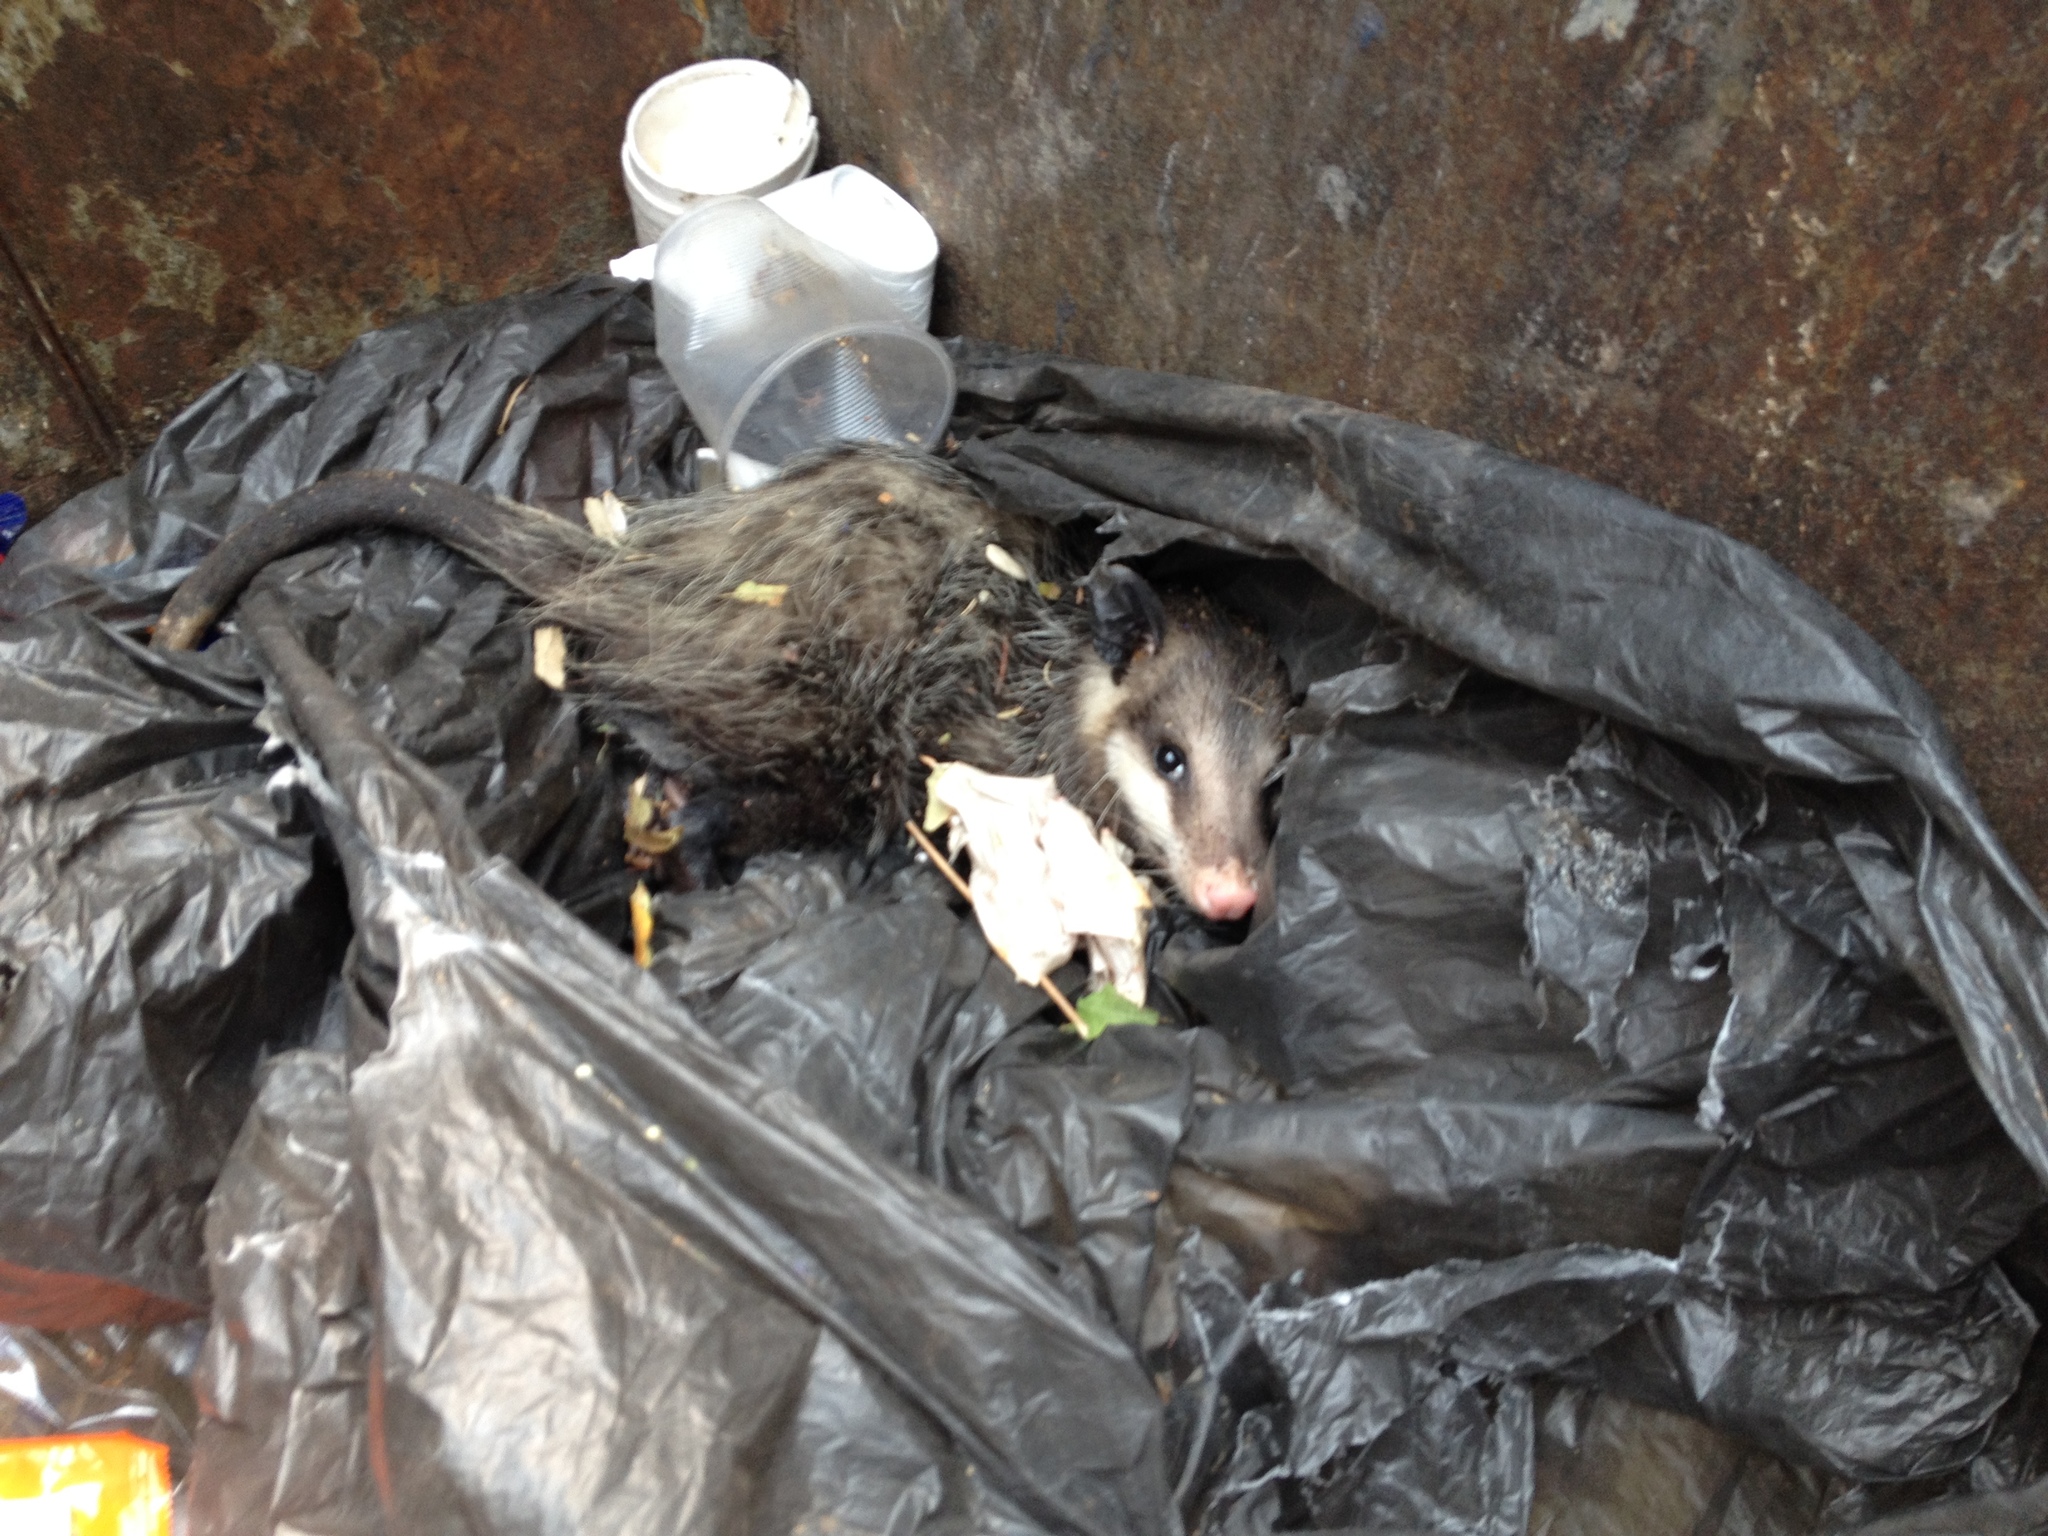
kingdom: Animalia
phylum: Chordata
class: Mammalia
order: Didelphimorphia
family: Didelphidae
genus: Didelphis
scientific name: Didelphis virginiana
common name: Virginia opossum
